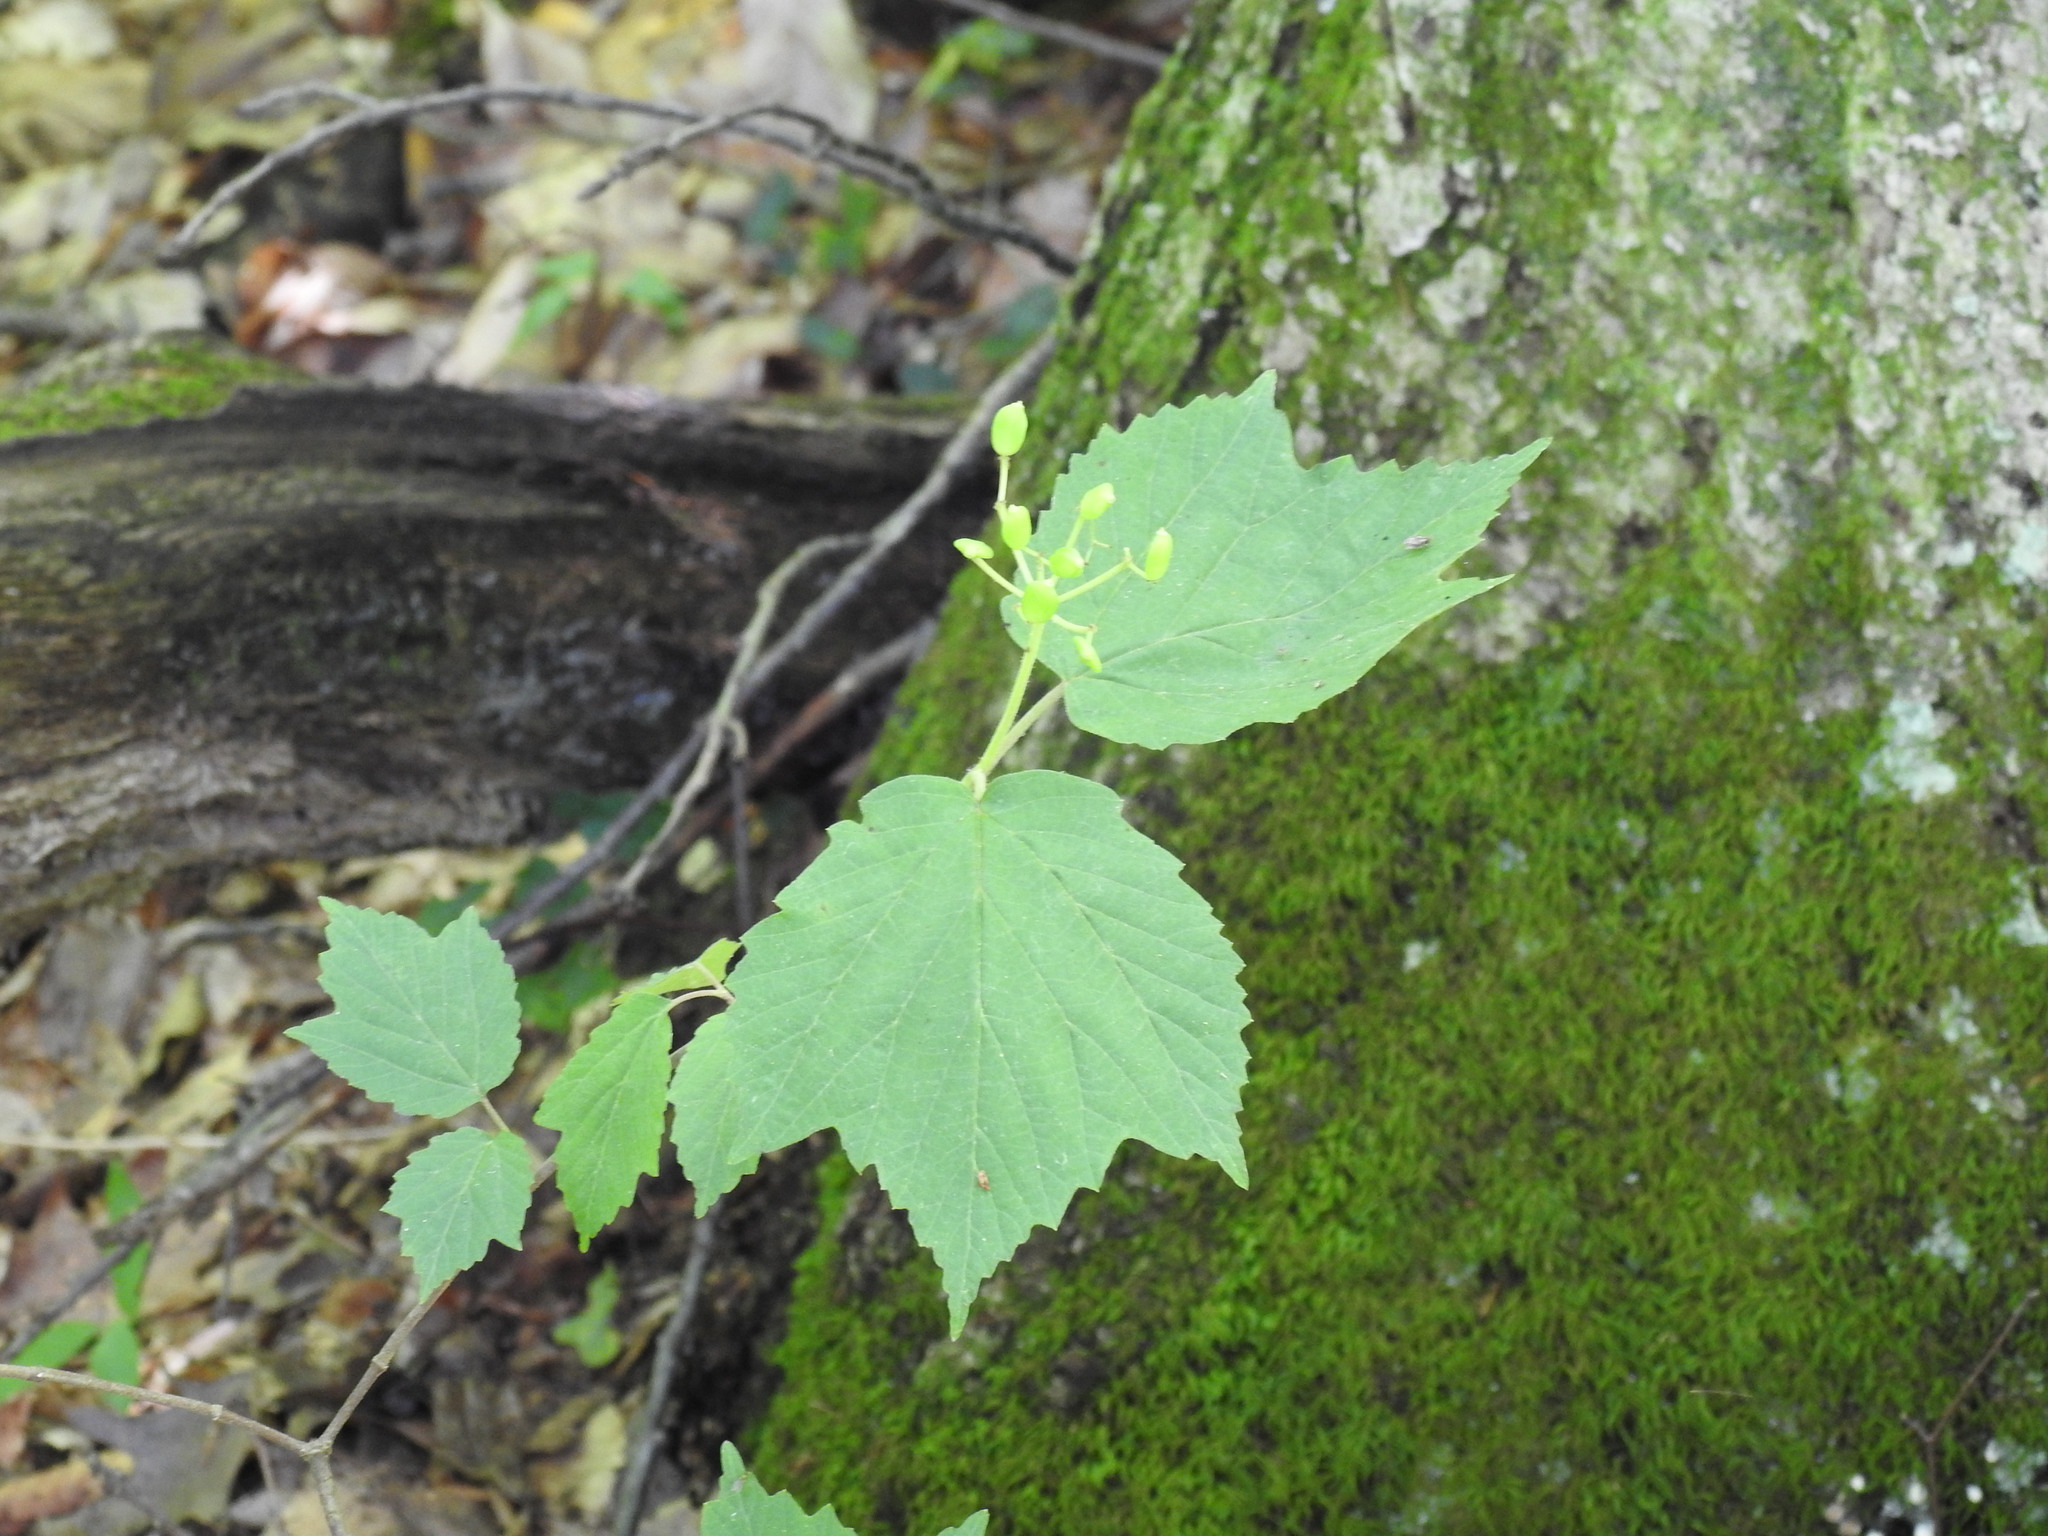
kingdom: Plantae
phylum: Tracheophyta
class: Magnoliopsida
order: Dipsacales
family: Viburnaceae
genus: Viburnum
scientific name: Viburnum acerifolium
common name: Dockmackie
